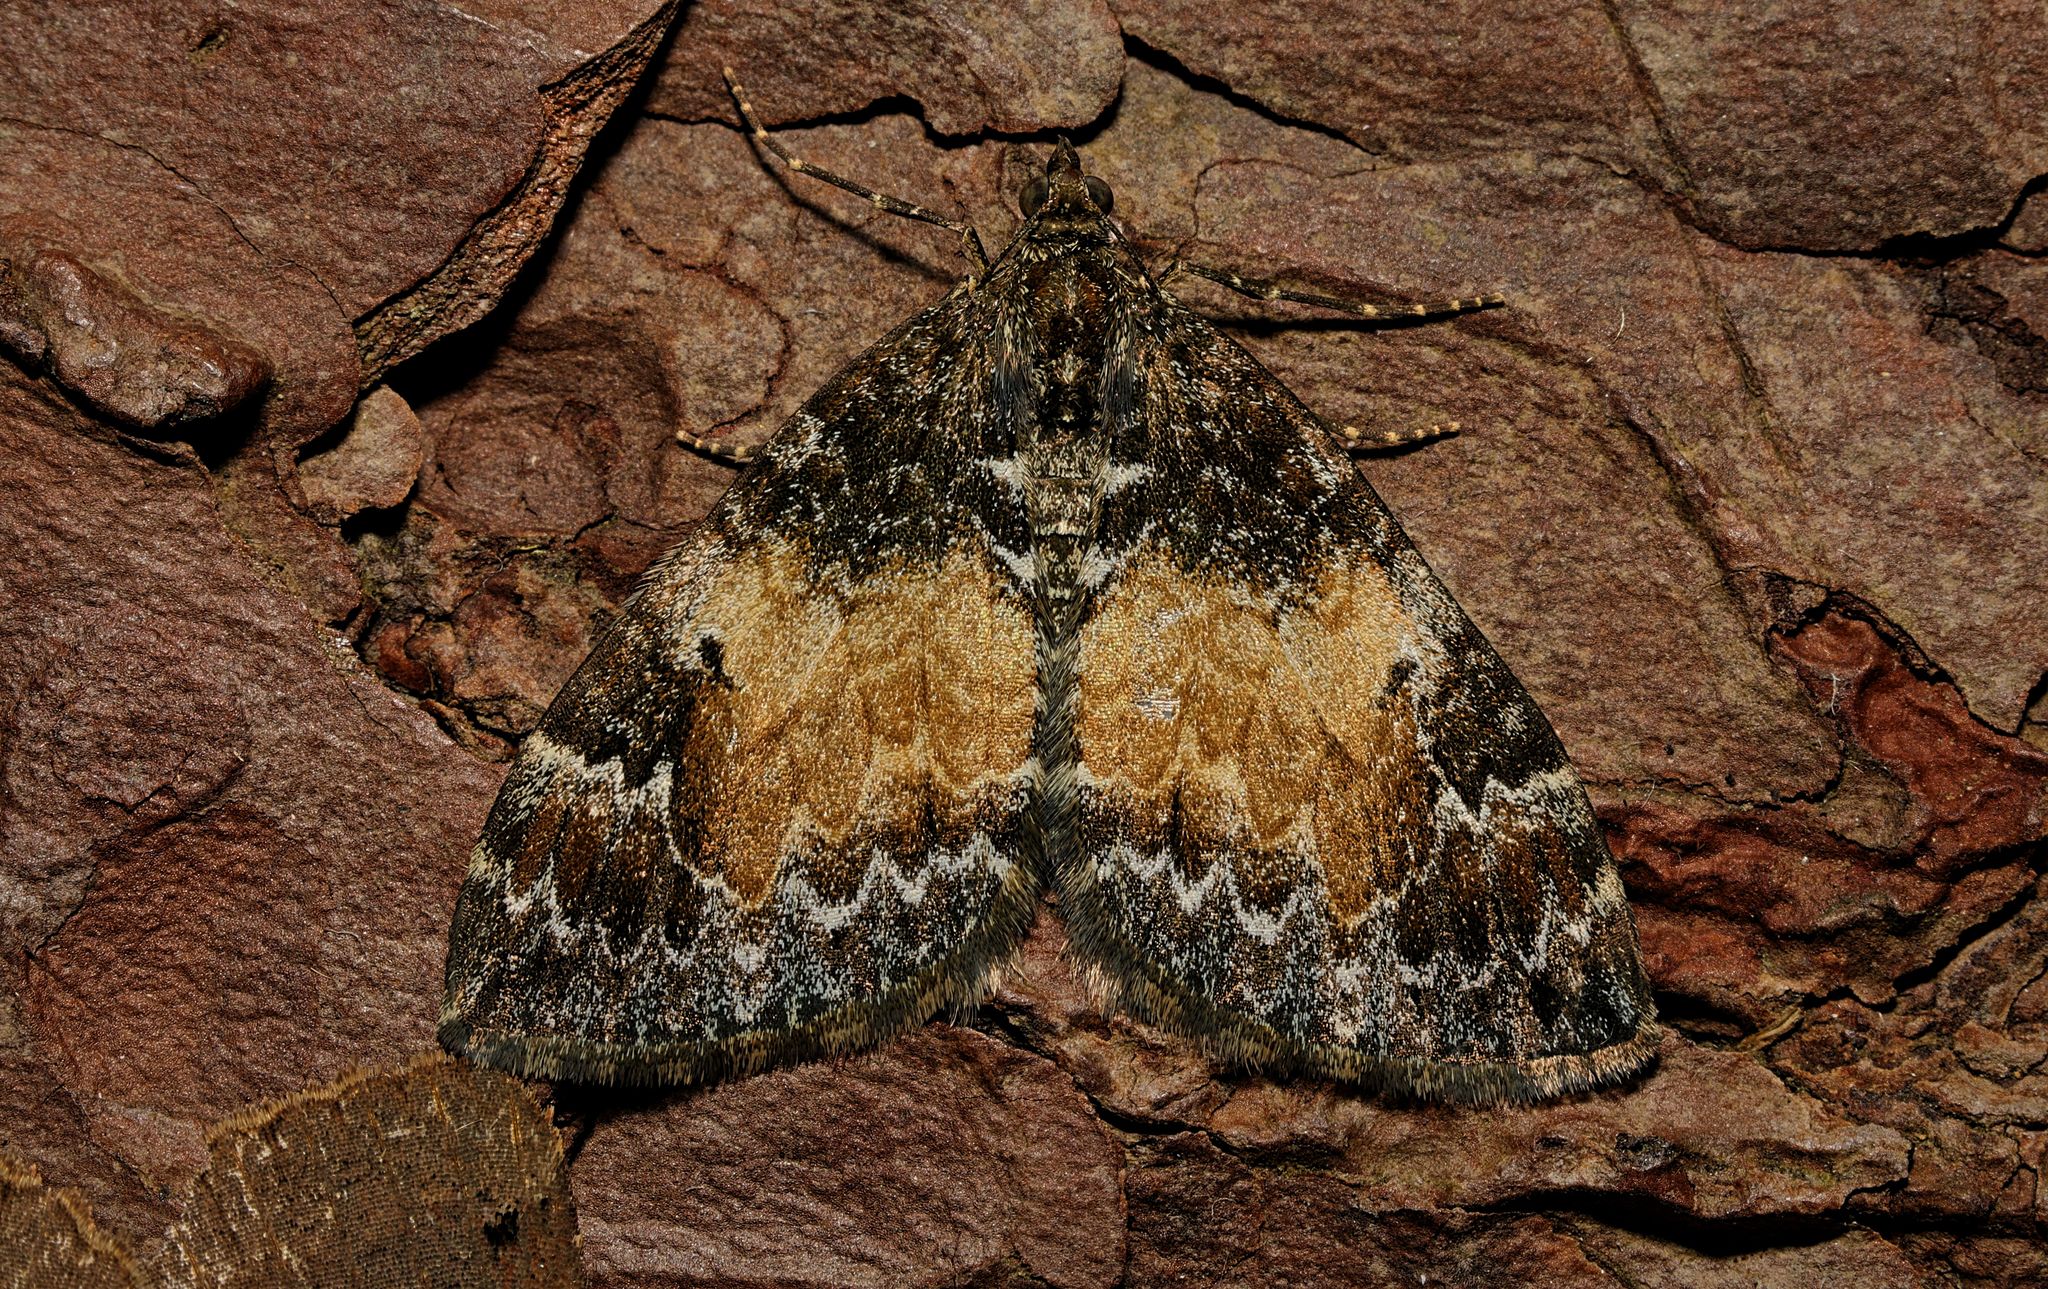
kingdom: Animalia
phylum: Arthropoda
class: Insecta
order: Lepidoptera
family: Geometridae
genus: Dysstroma
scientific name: Dysstroma truncata
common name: Common marbled carpet
